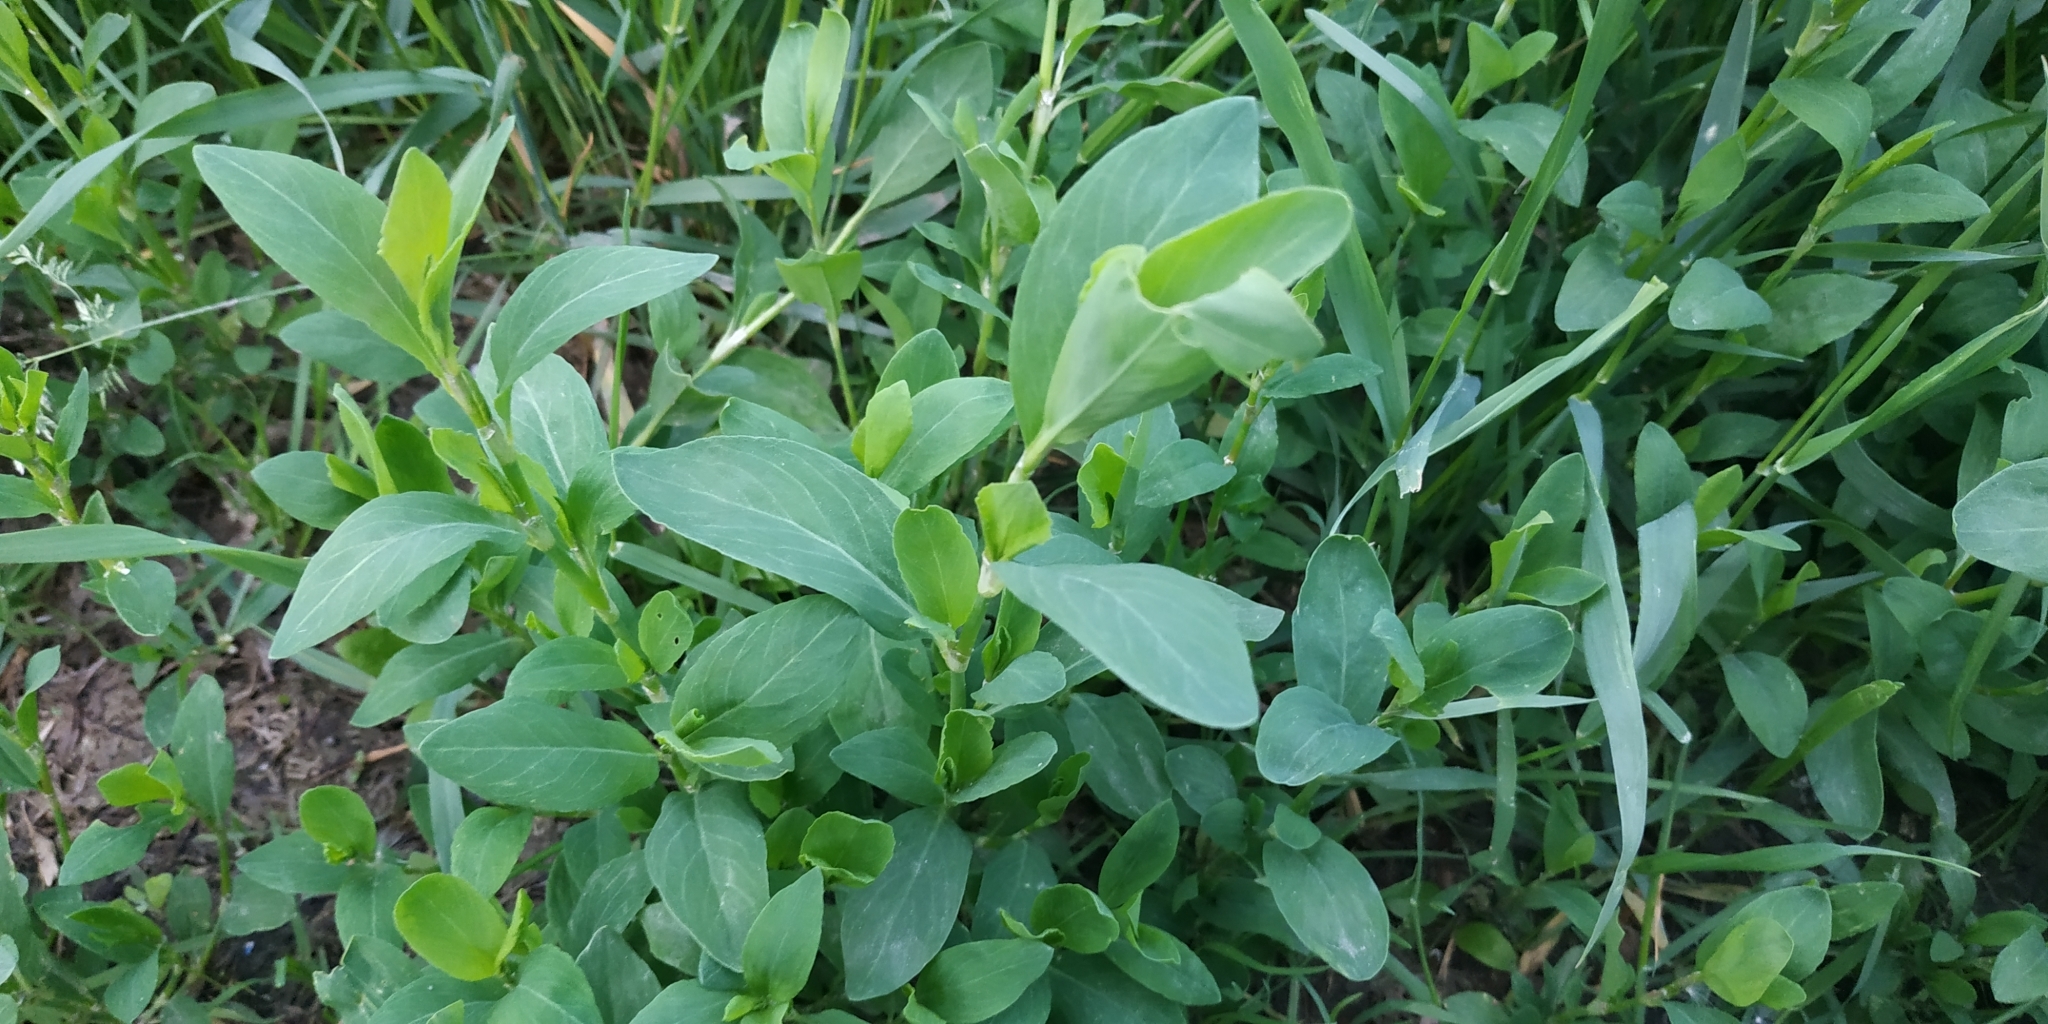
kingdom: Plantae
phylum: Tracheophyta
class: Magnoliopsida
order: Caryophyllales
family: Polygonaceae
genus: Polygonum
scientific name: Polygonum aviculare
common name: Prostrate knotweed
